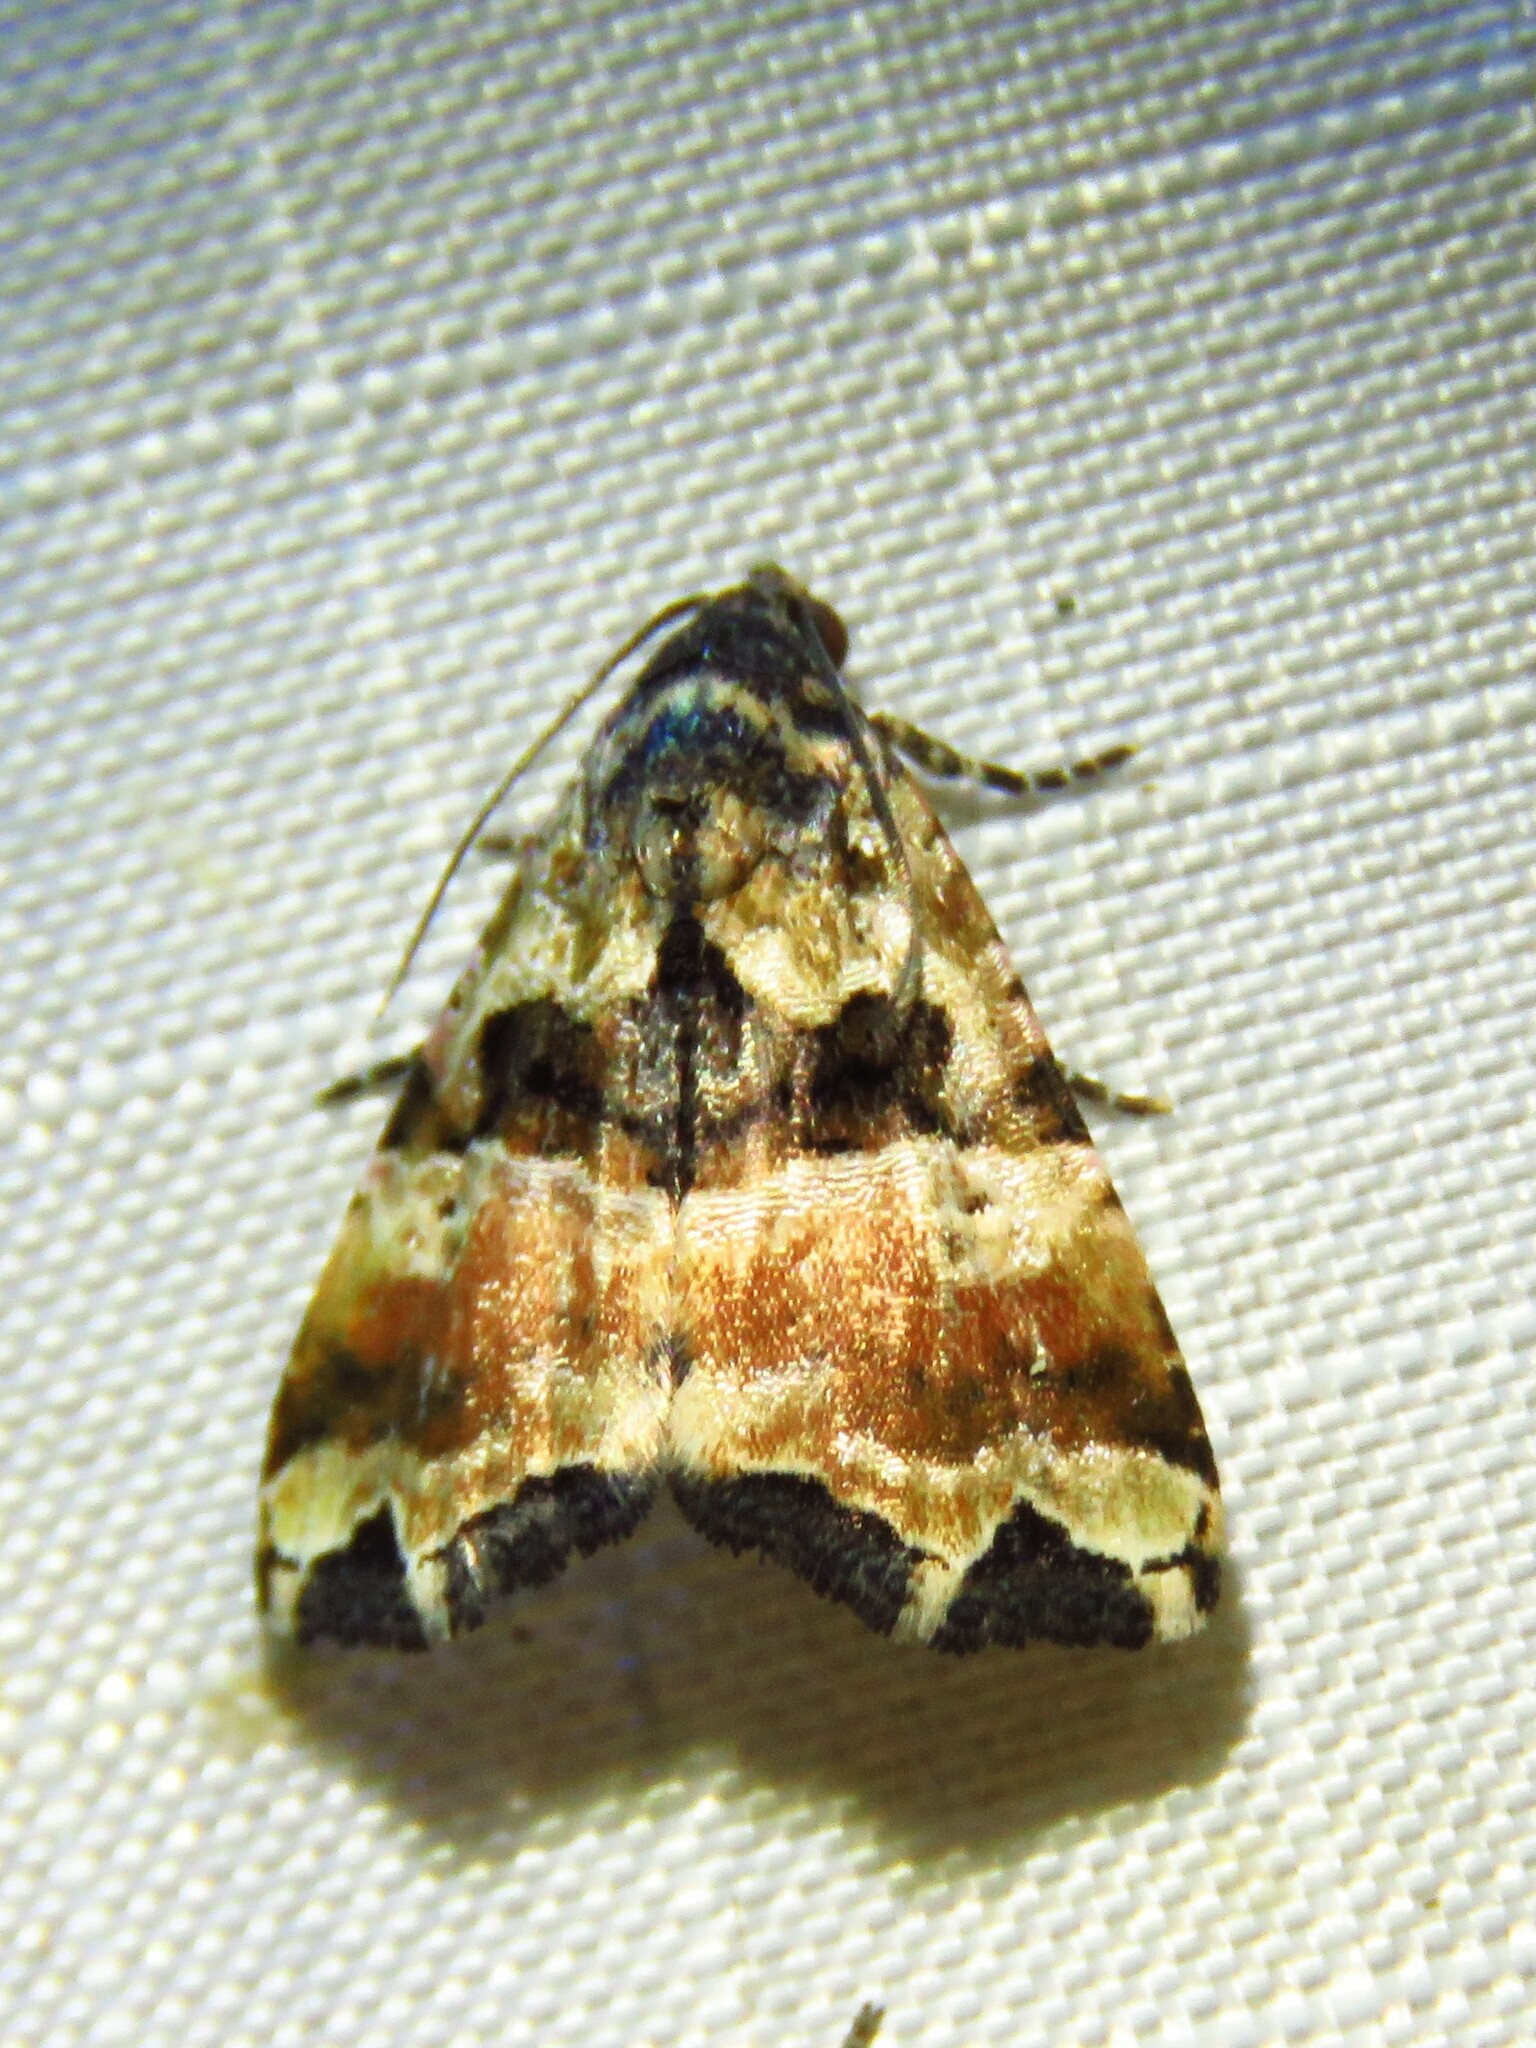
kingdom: Animalia
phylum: Arthropoda
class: Insecta
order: Lepidoptera
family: Noctuidae
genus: Cobubatha
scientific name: Cobubatha numa
